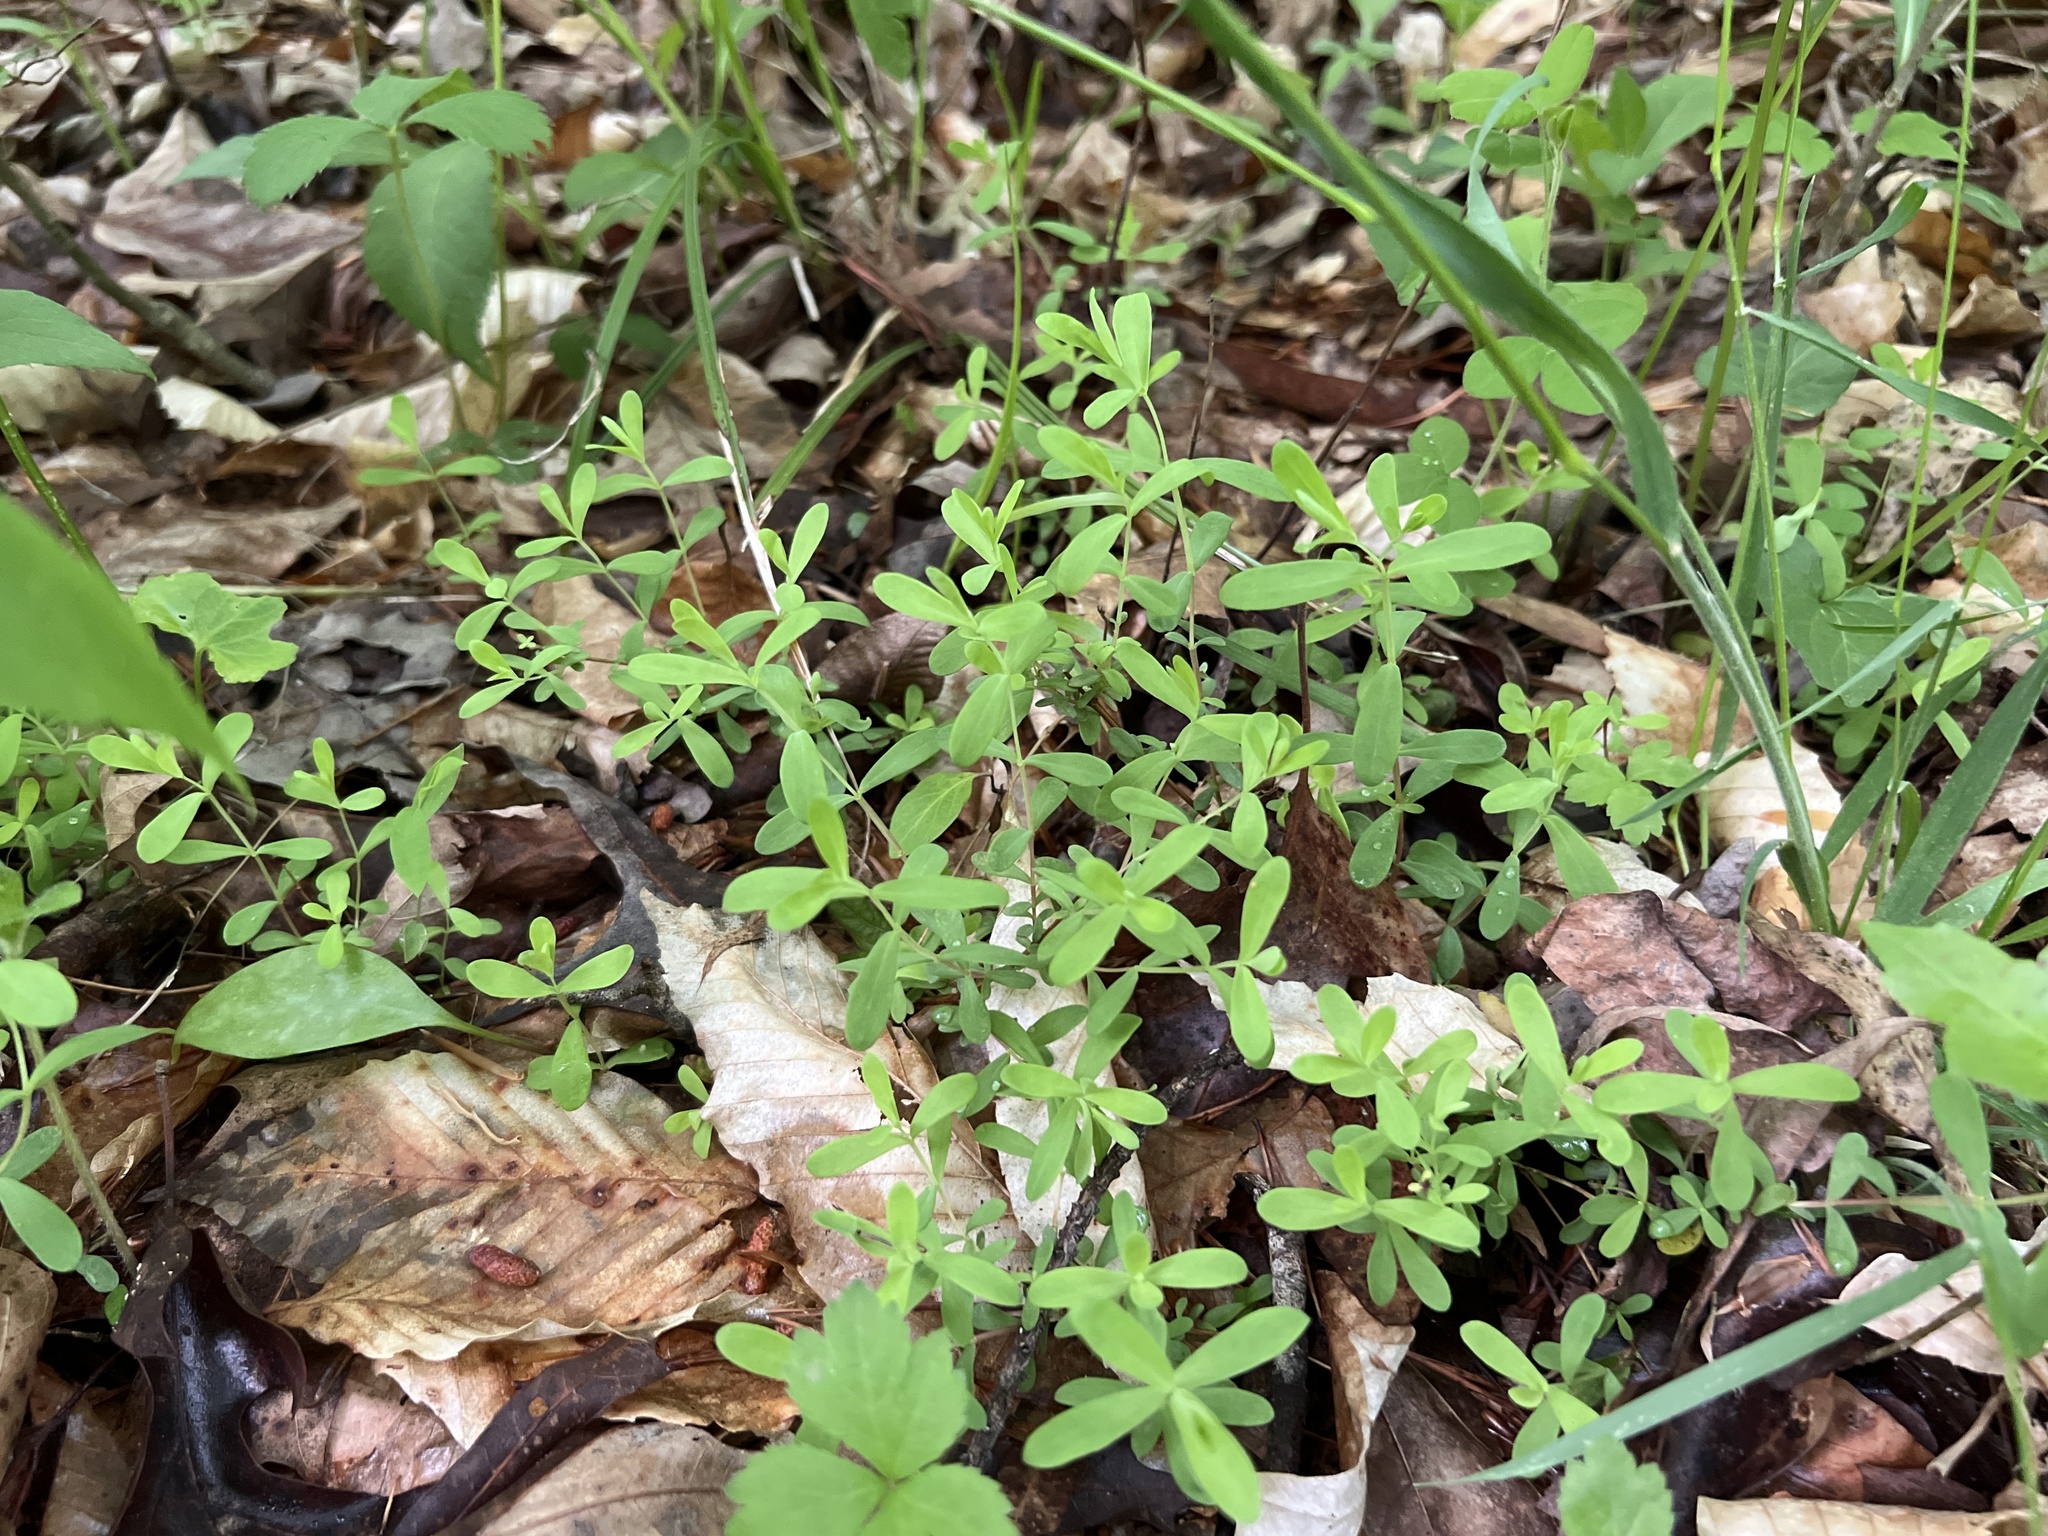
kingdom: Plantae
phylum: Tracheophyta
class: Magnoliopsida
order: Malpighiales
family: Hypericaceae
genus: Hypericum
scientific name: Hypericum hypericoides
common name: St. andrew's cross
